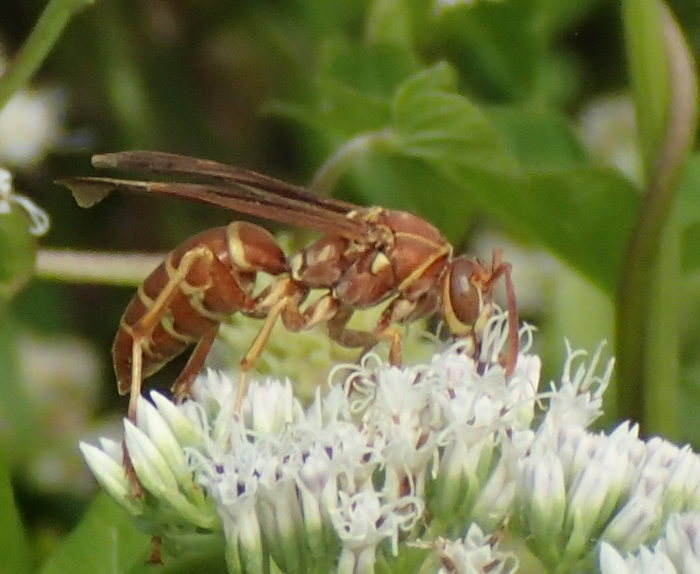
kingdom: Animalia
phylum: Arthropoda
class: Insecta
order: Hymenoptera
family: Eumenidae
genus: Polistes
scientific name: Polistes bellicosus
